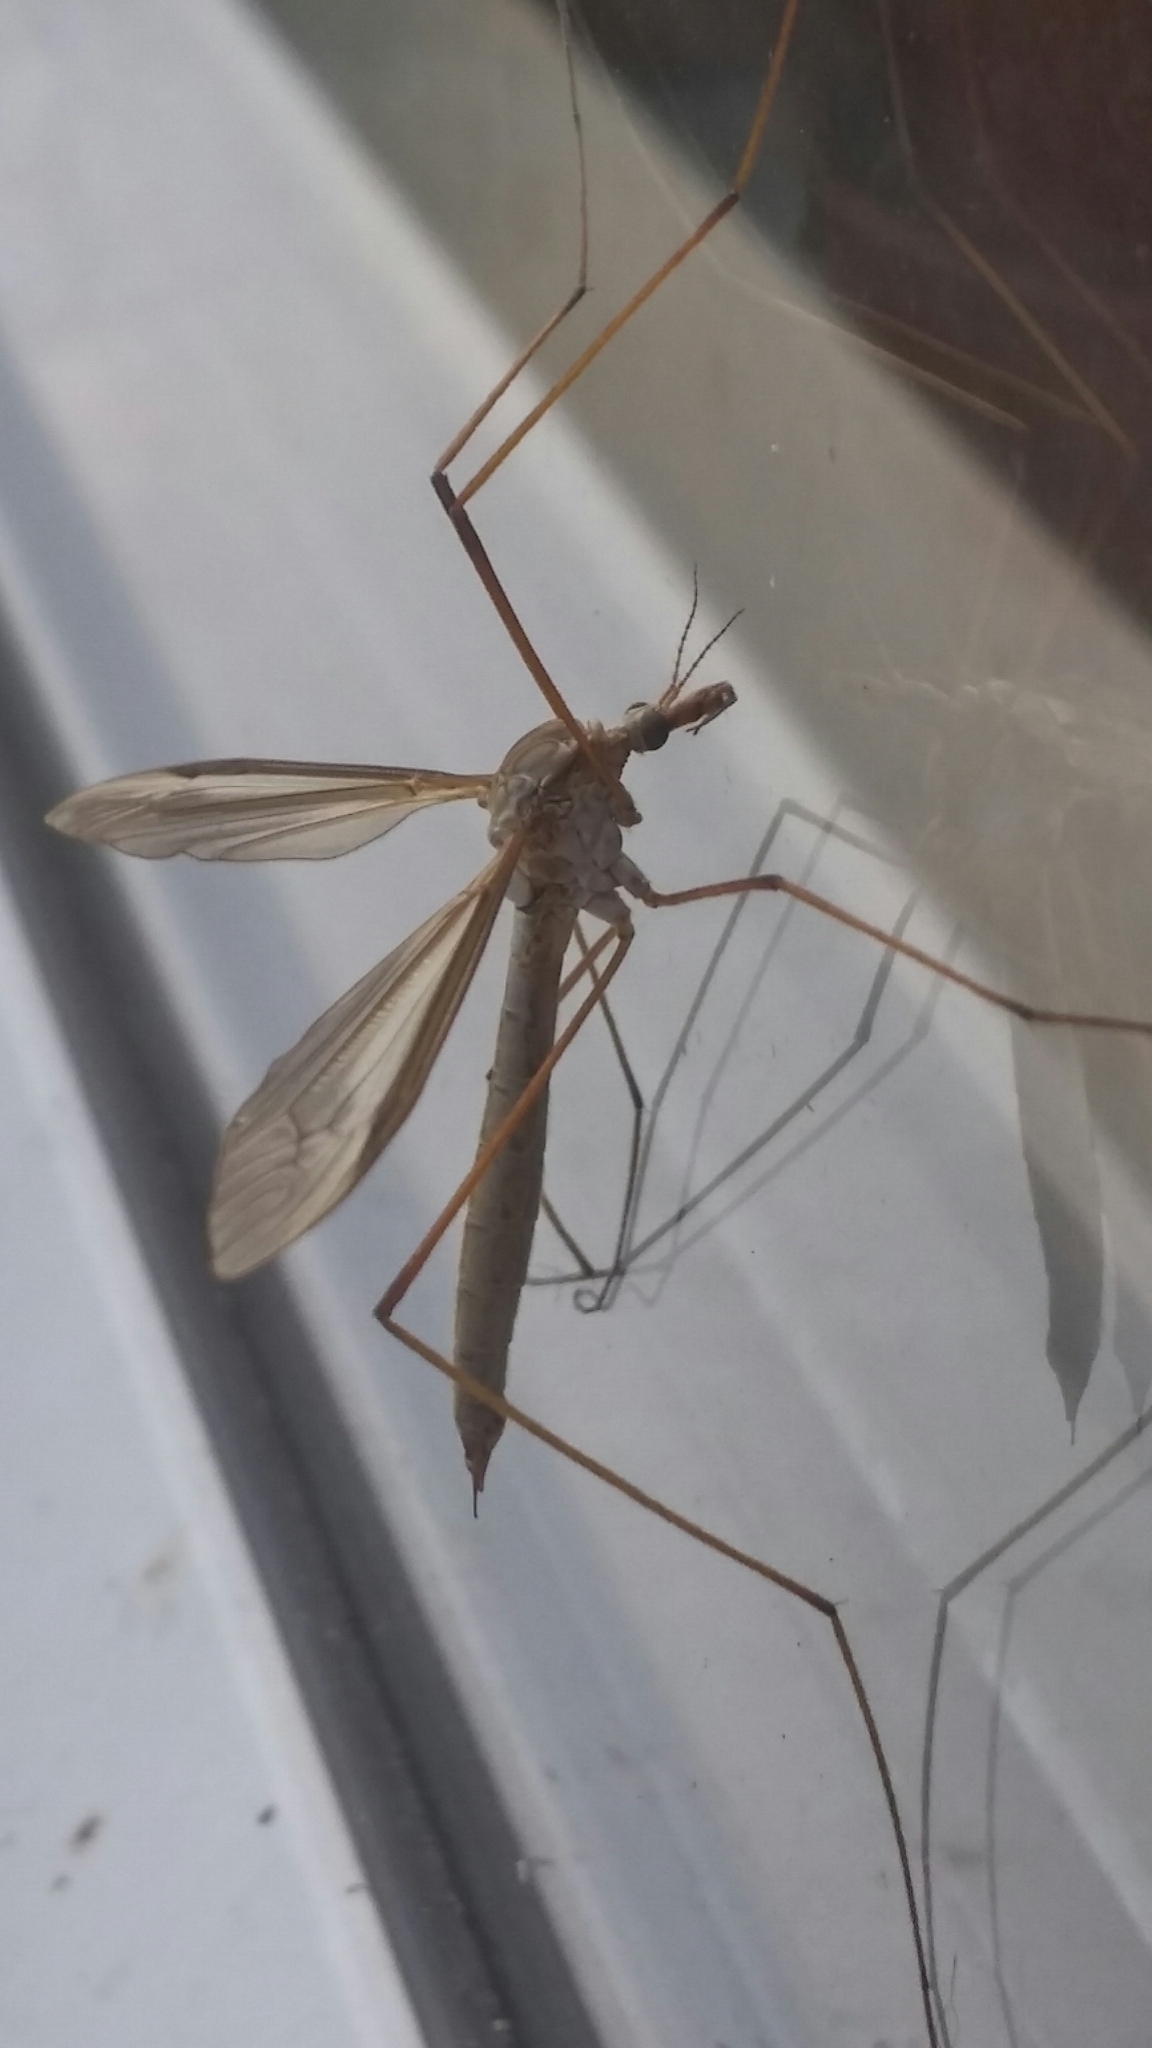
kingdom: Animalia
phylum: Arthropoda
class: Insecta
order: Diptera
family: Tipulidae
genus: Tipula
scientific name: Tipula paludosa
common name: European cranefly
